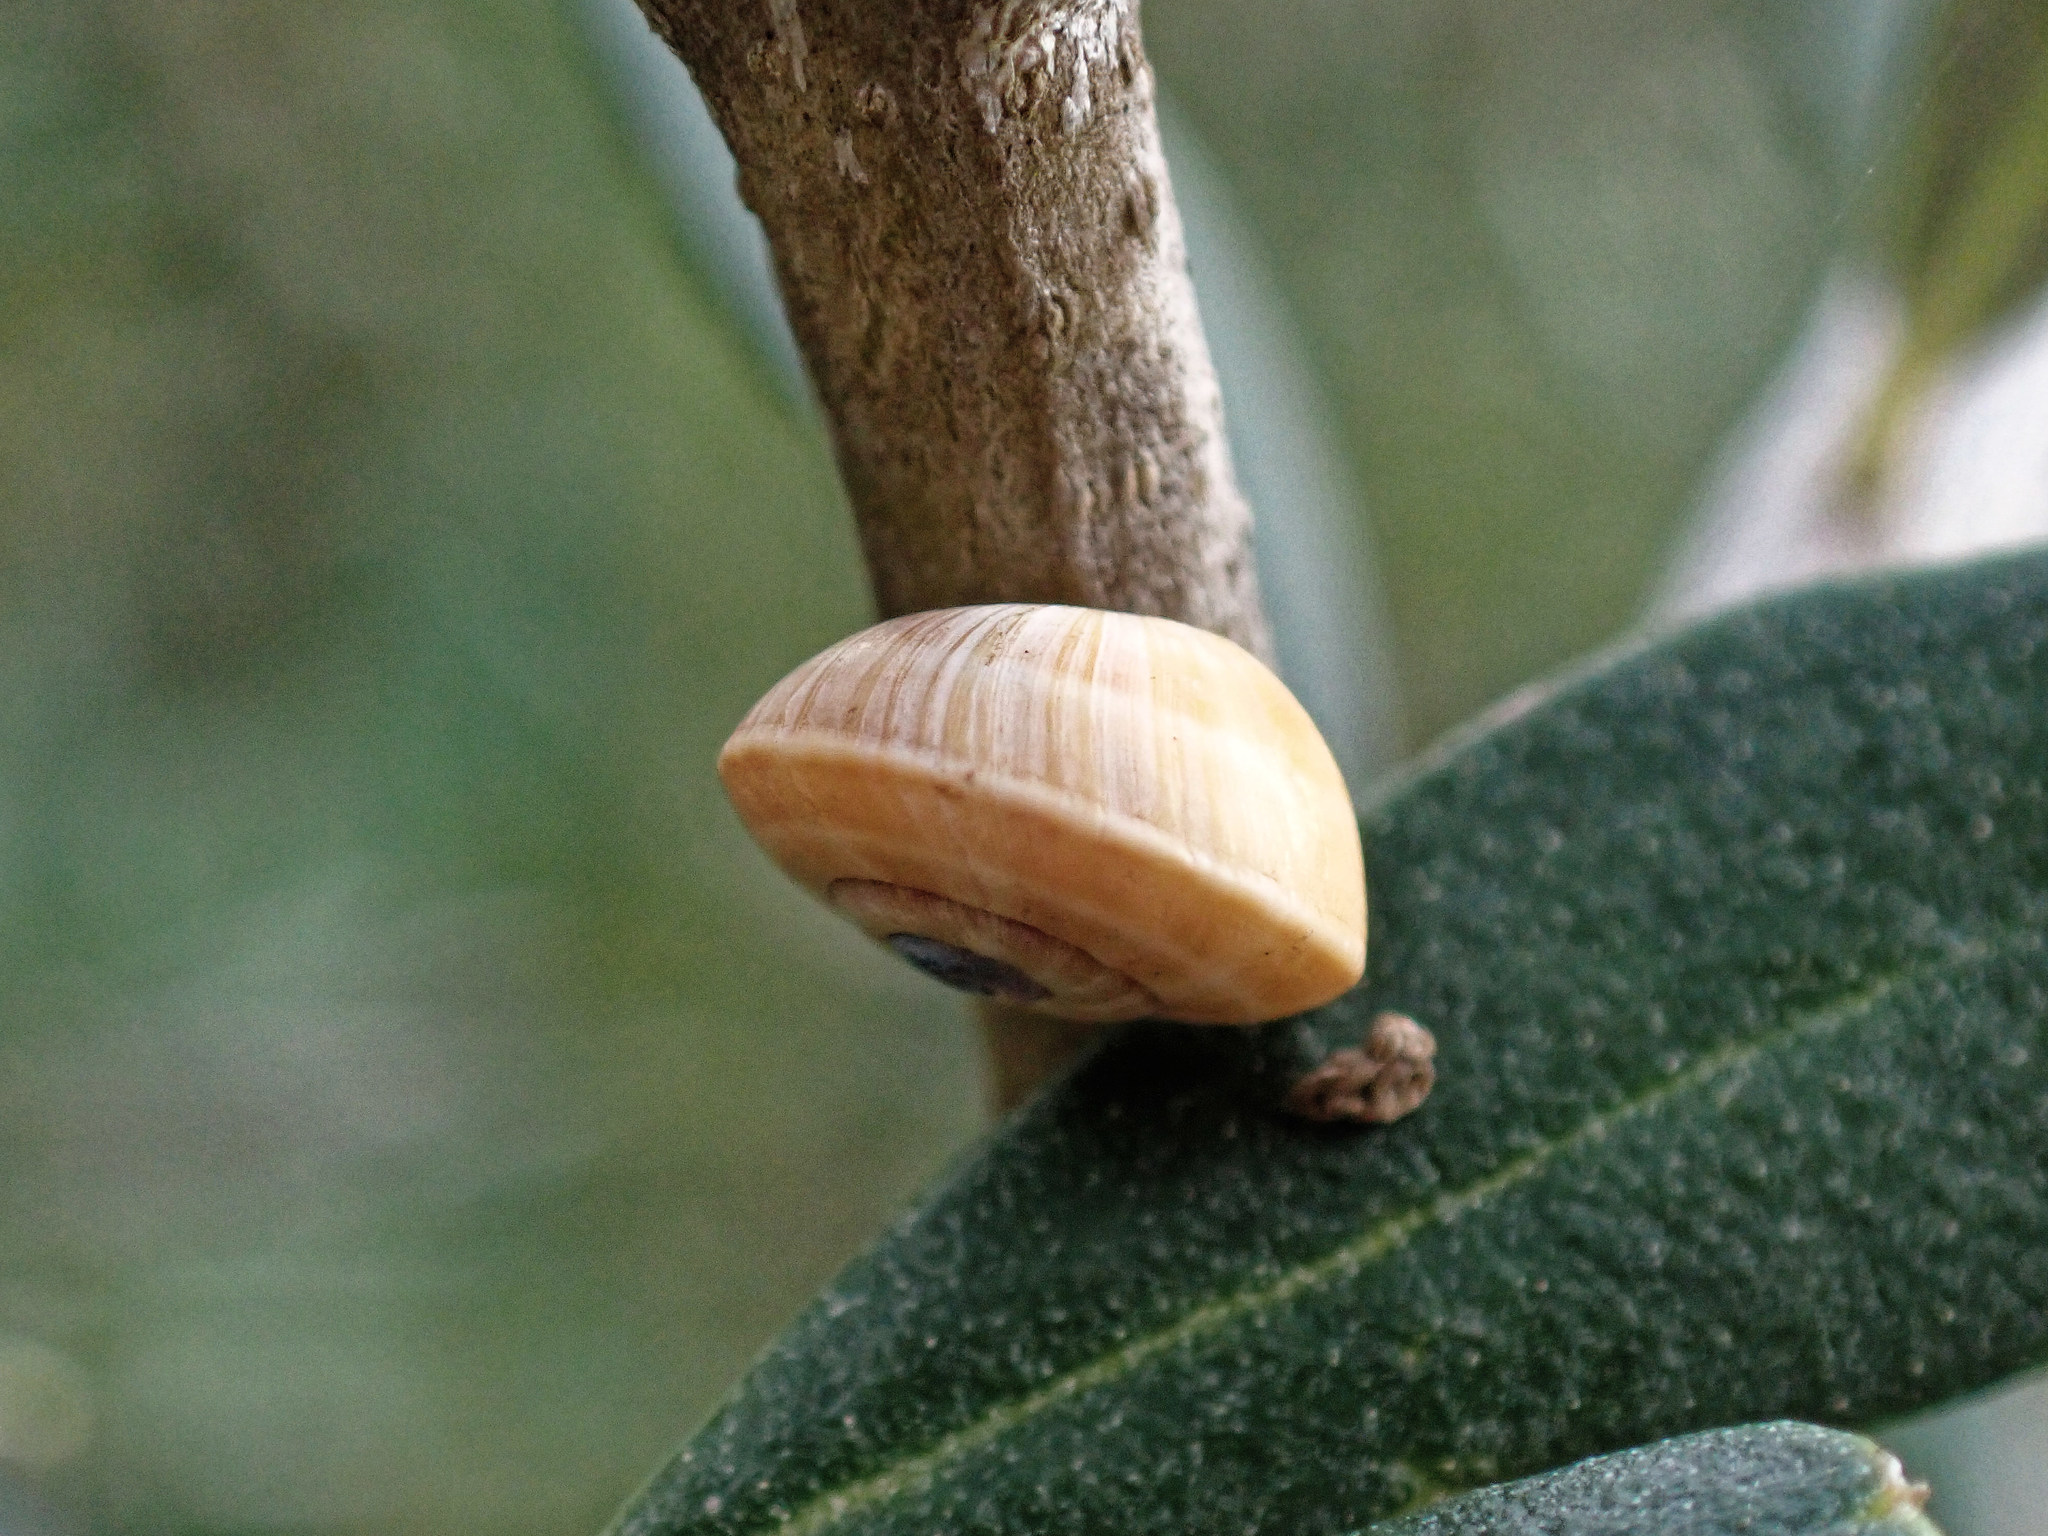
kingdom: Animalia
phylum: Mollusca
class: Gastropoda
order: Stylommatophora
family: Helicidae
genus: Theba
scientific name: Theba pisana
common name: White snail
